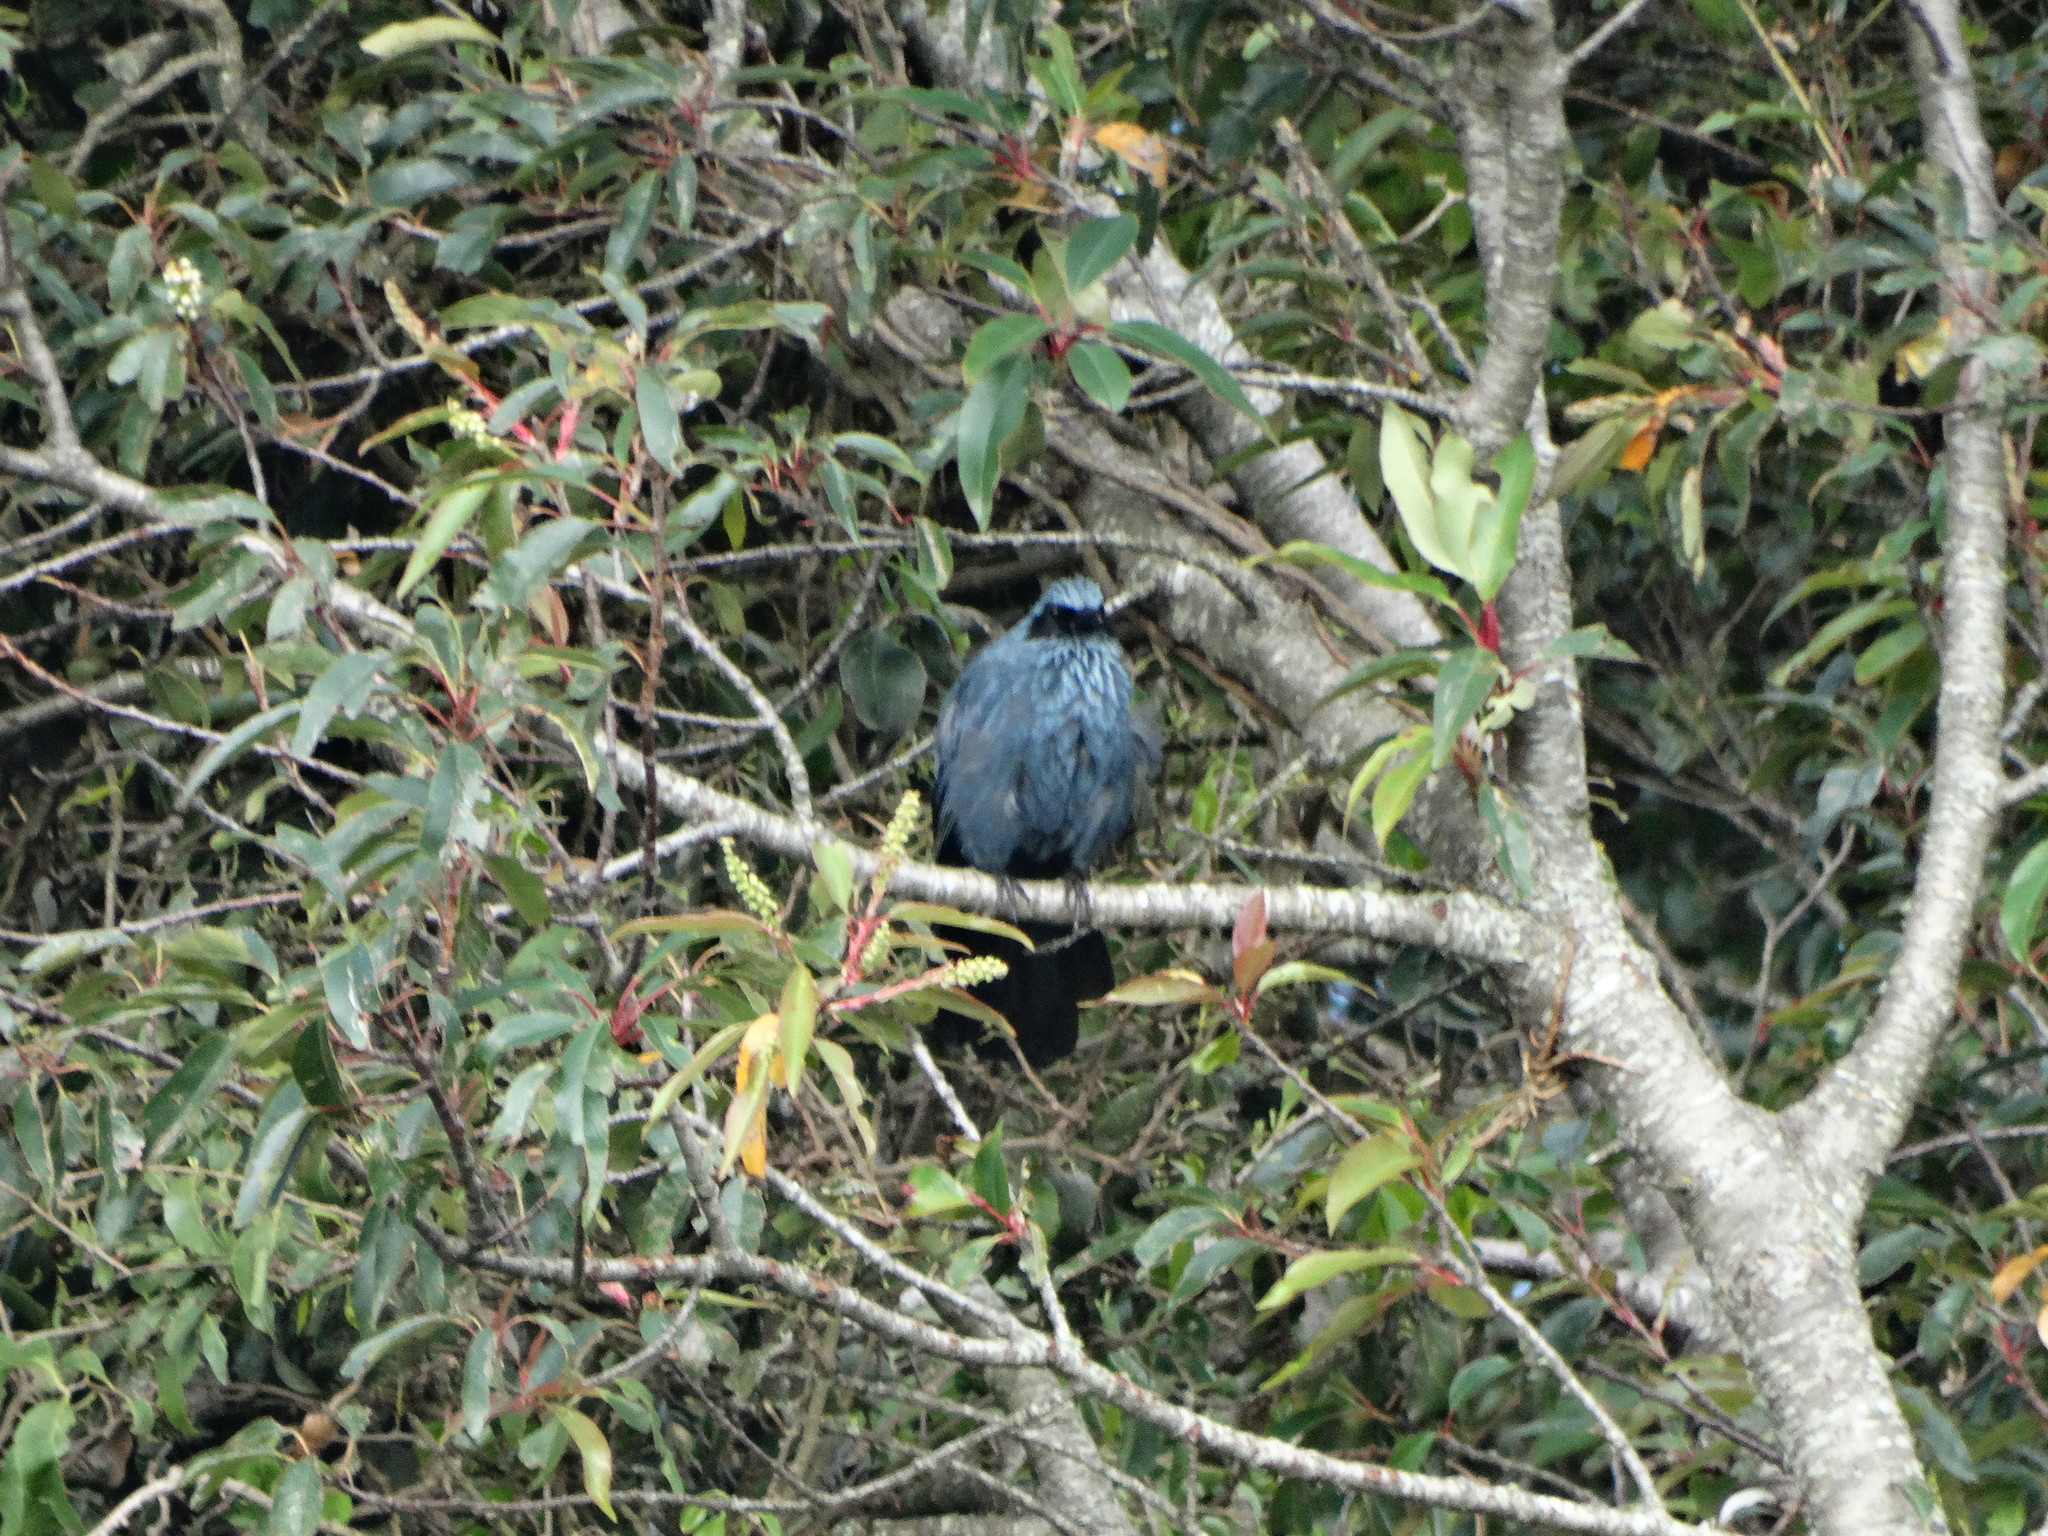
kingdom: Animalia
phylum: Chordata
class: Aves
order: Passeriformes
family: Mimidae
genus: Melanotis
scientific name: Melanotis caerulescens
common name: Blue mockingbird
